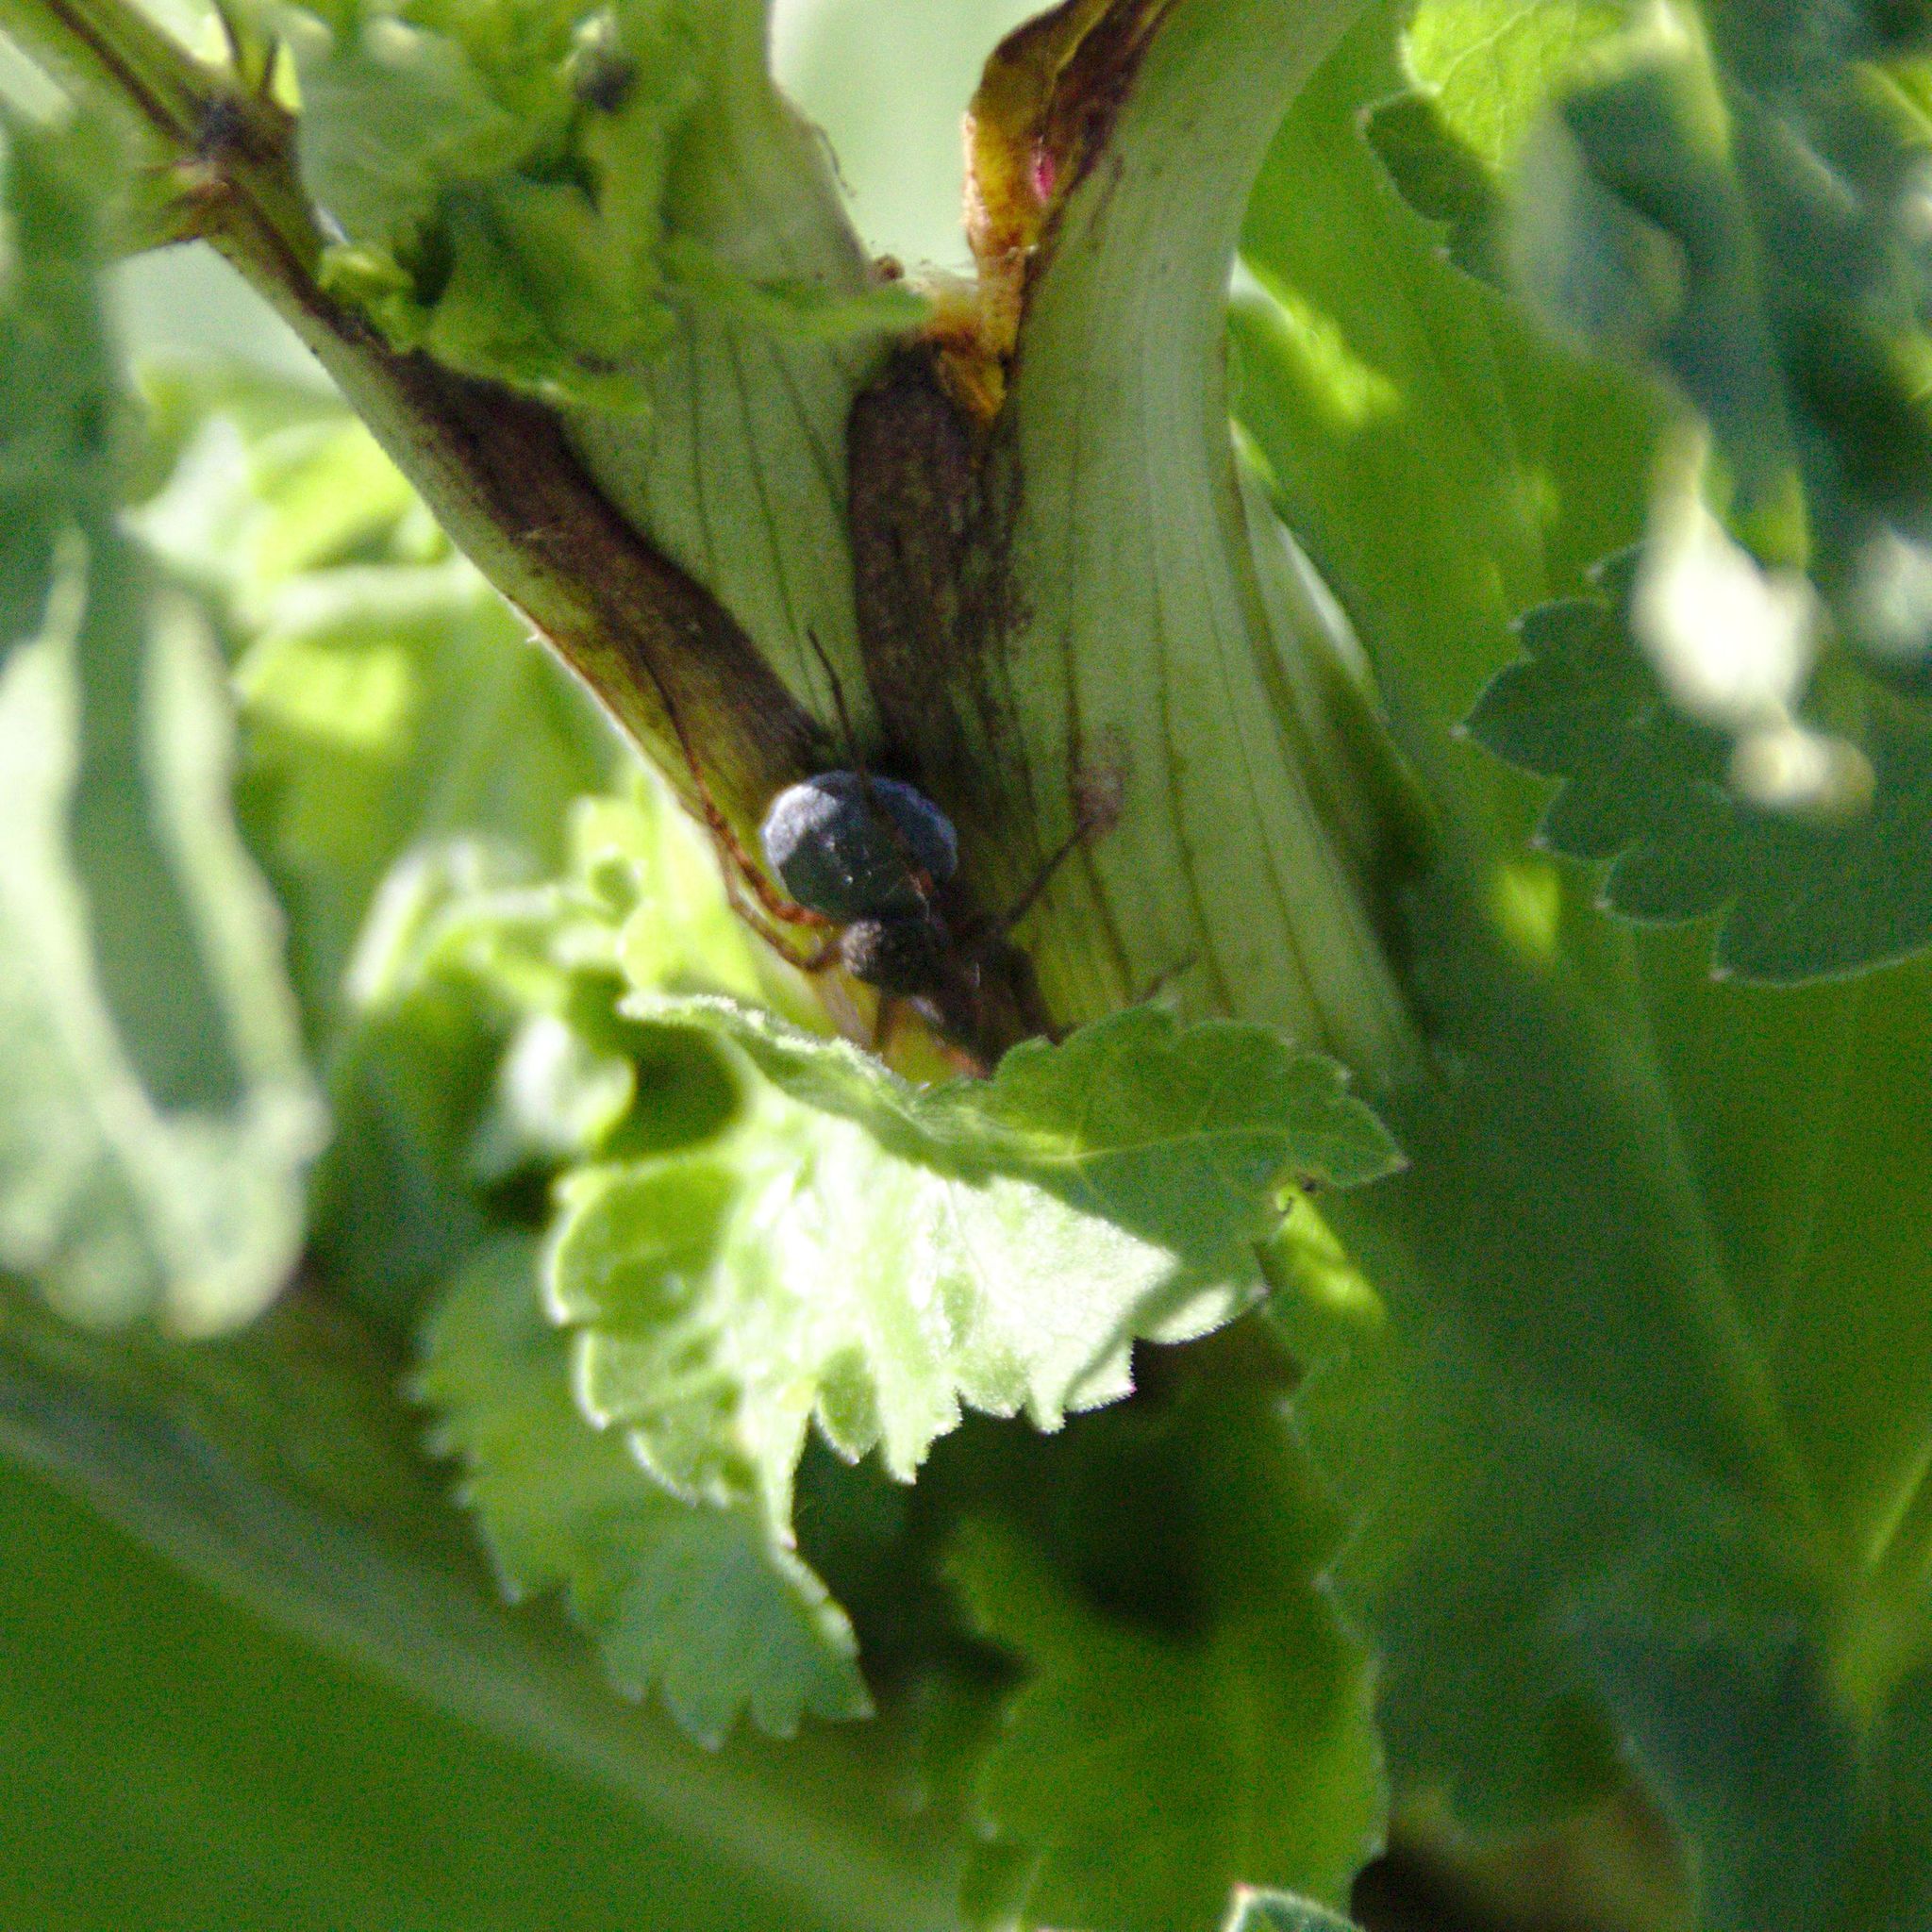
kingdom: Animalia
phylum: Arthropoda
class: Arachnida
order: Araneae
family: Lycosidae
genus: Pardosa
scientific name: Pardosa
